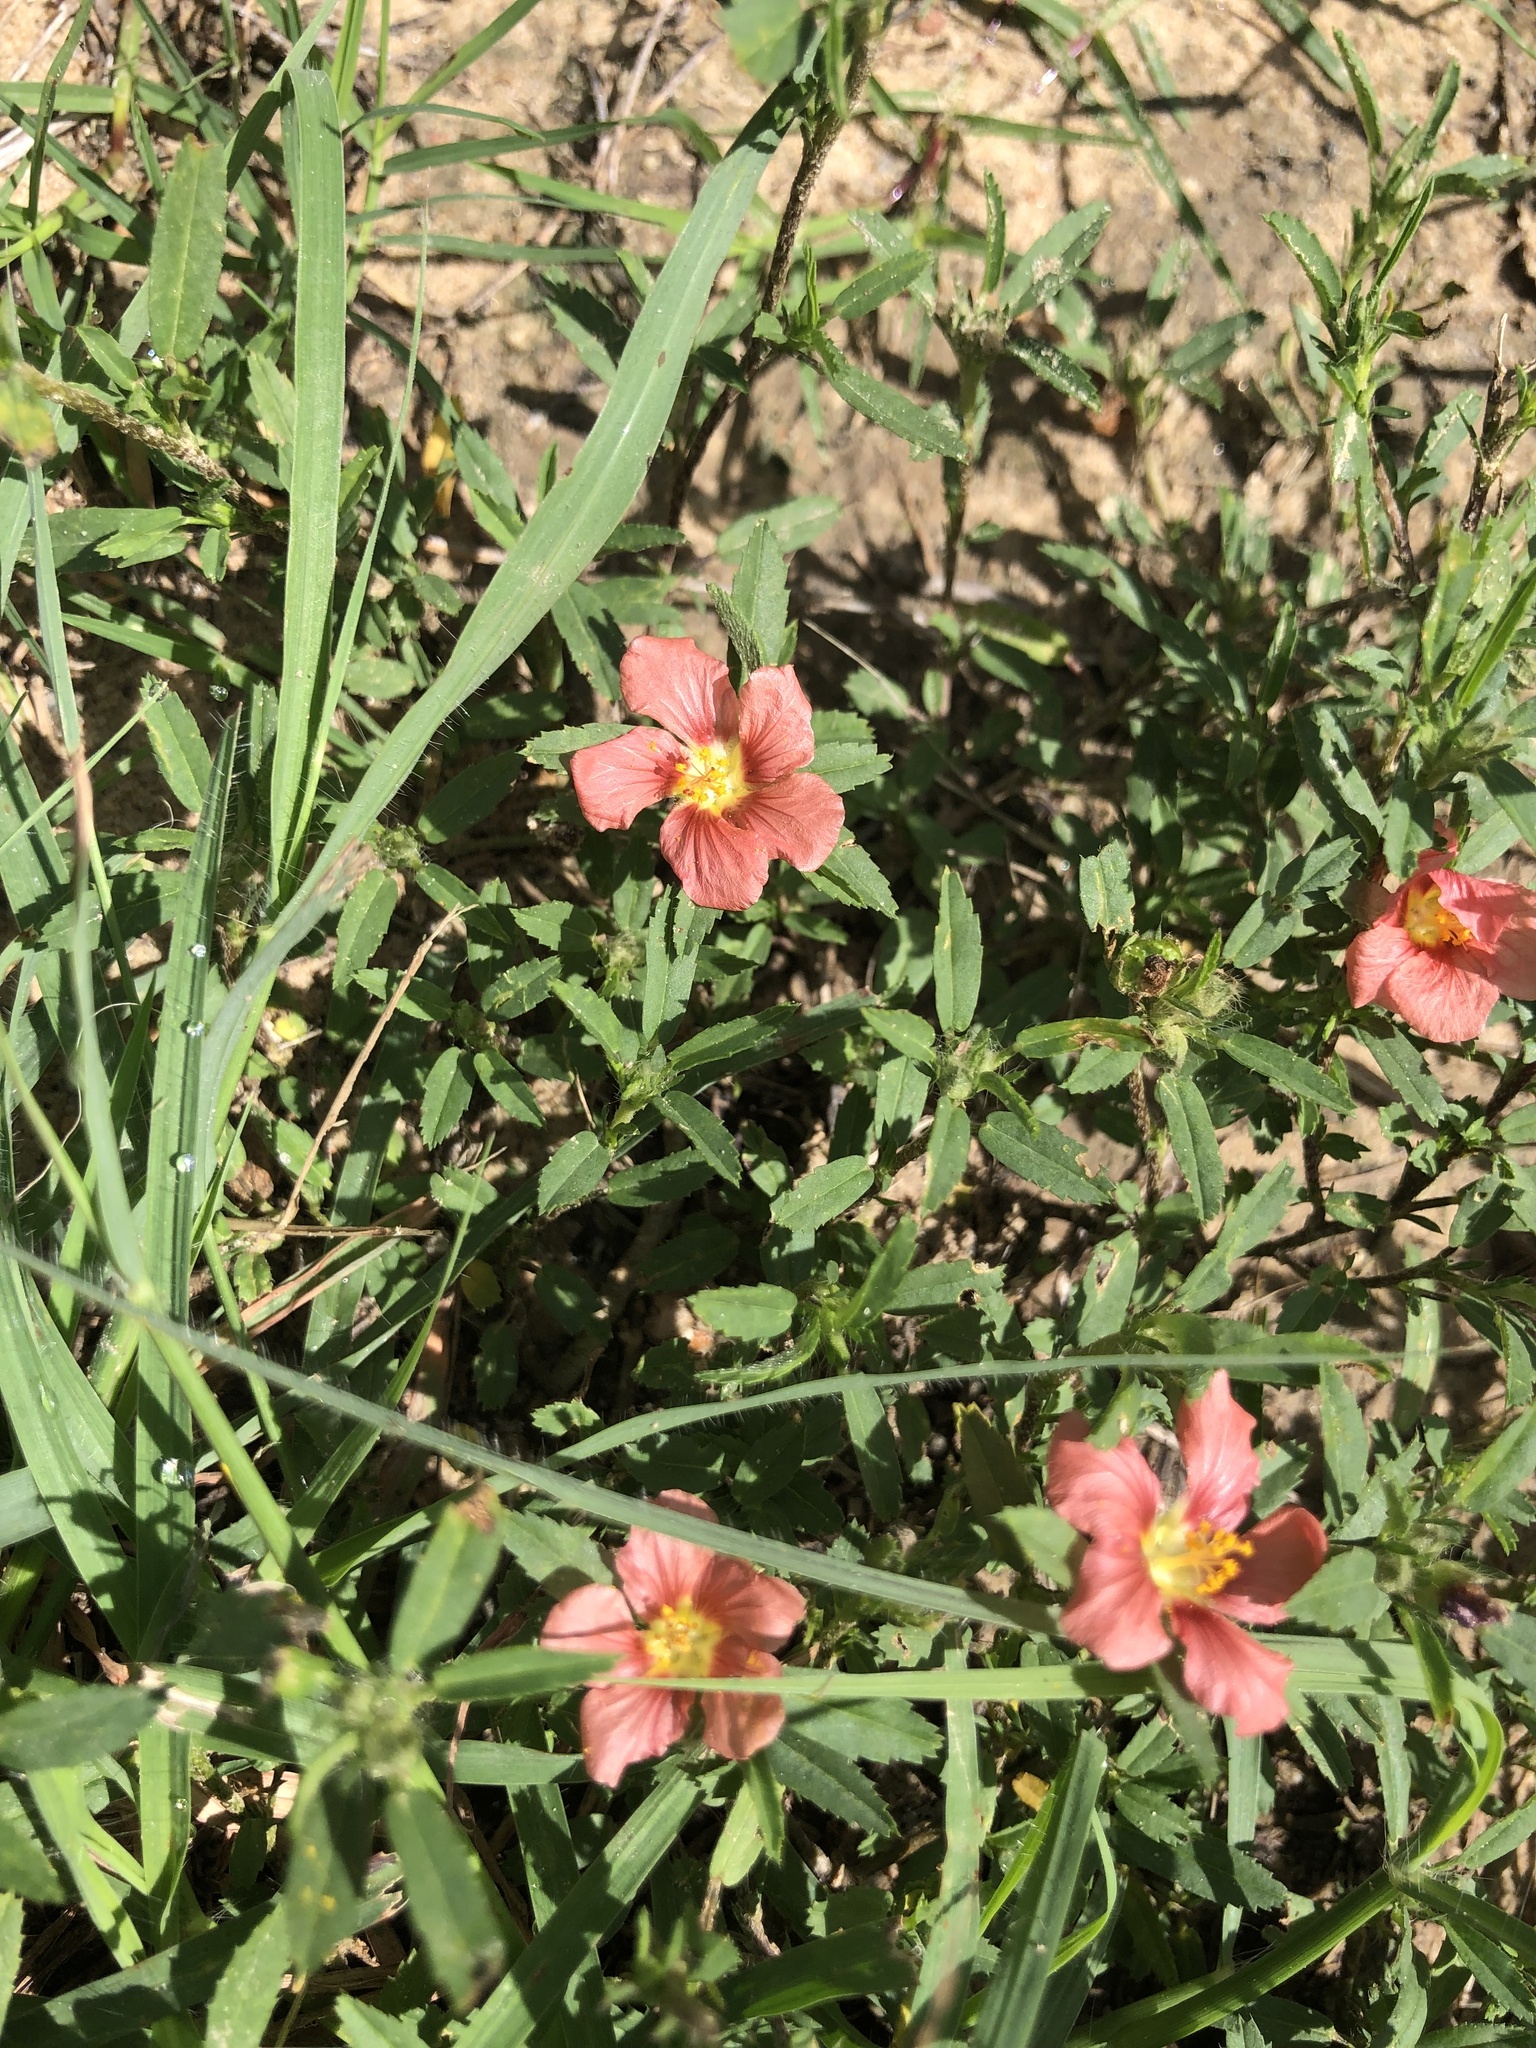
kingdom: Plantae
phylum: Tracheophyta
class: Magnoliopsida
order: Malvales
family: Malvaceae
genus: Sida
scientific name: Sida ciliaris
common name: Bracted fanpetals
